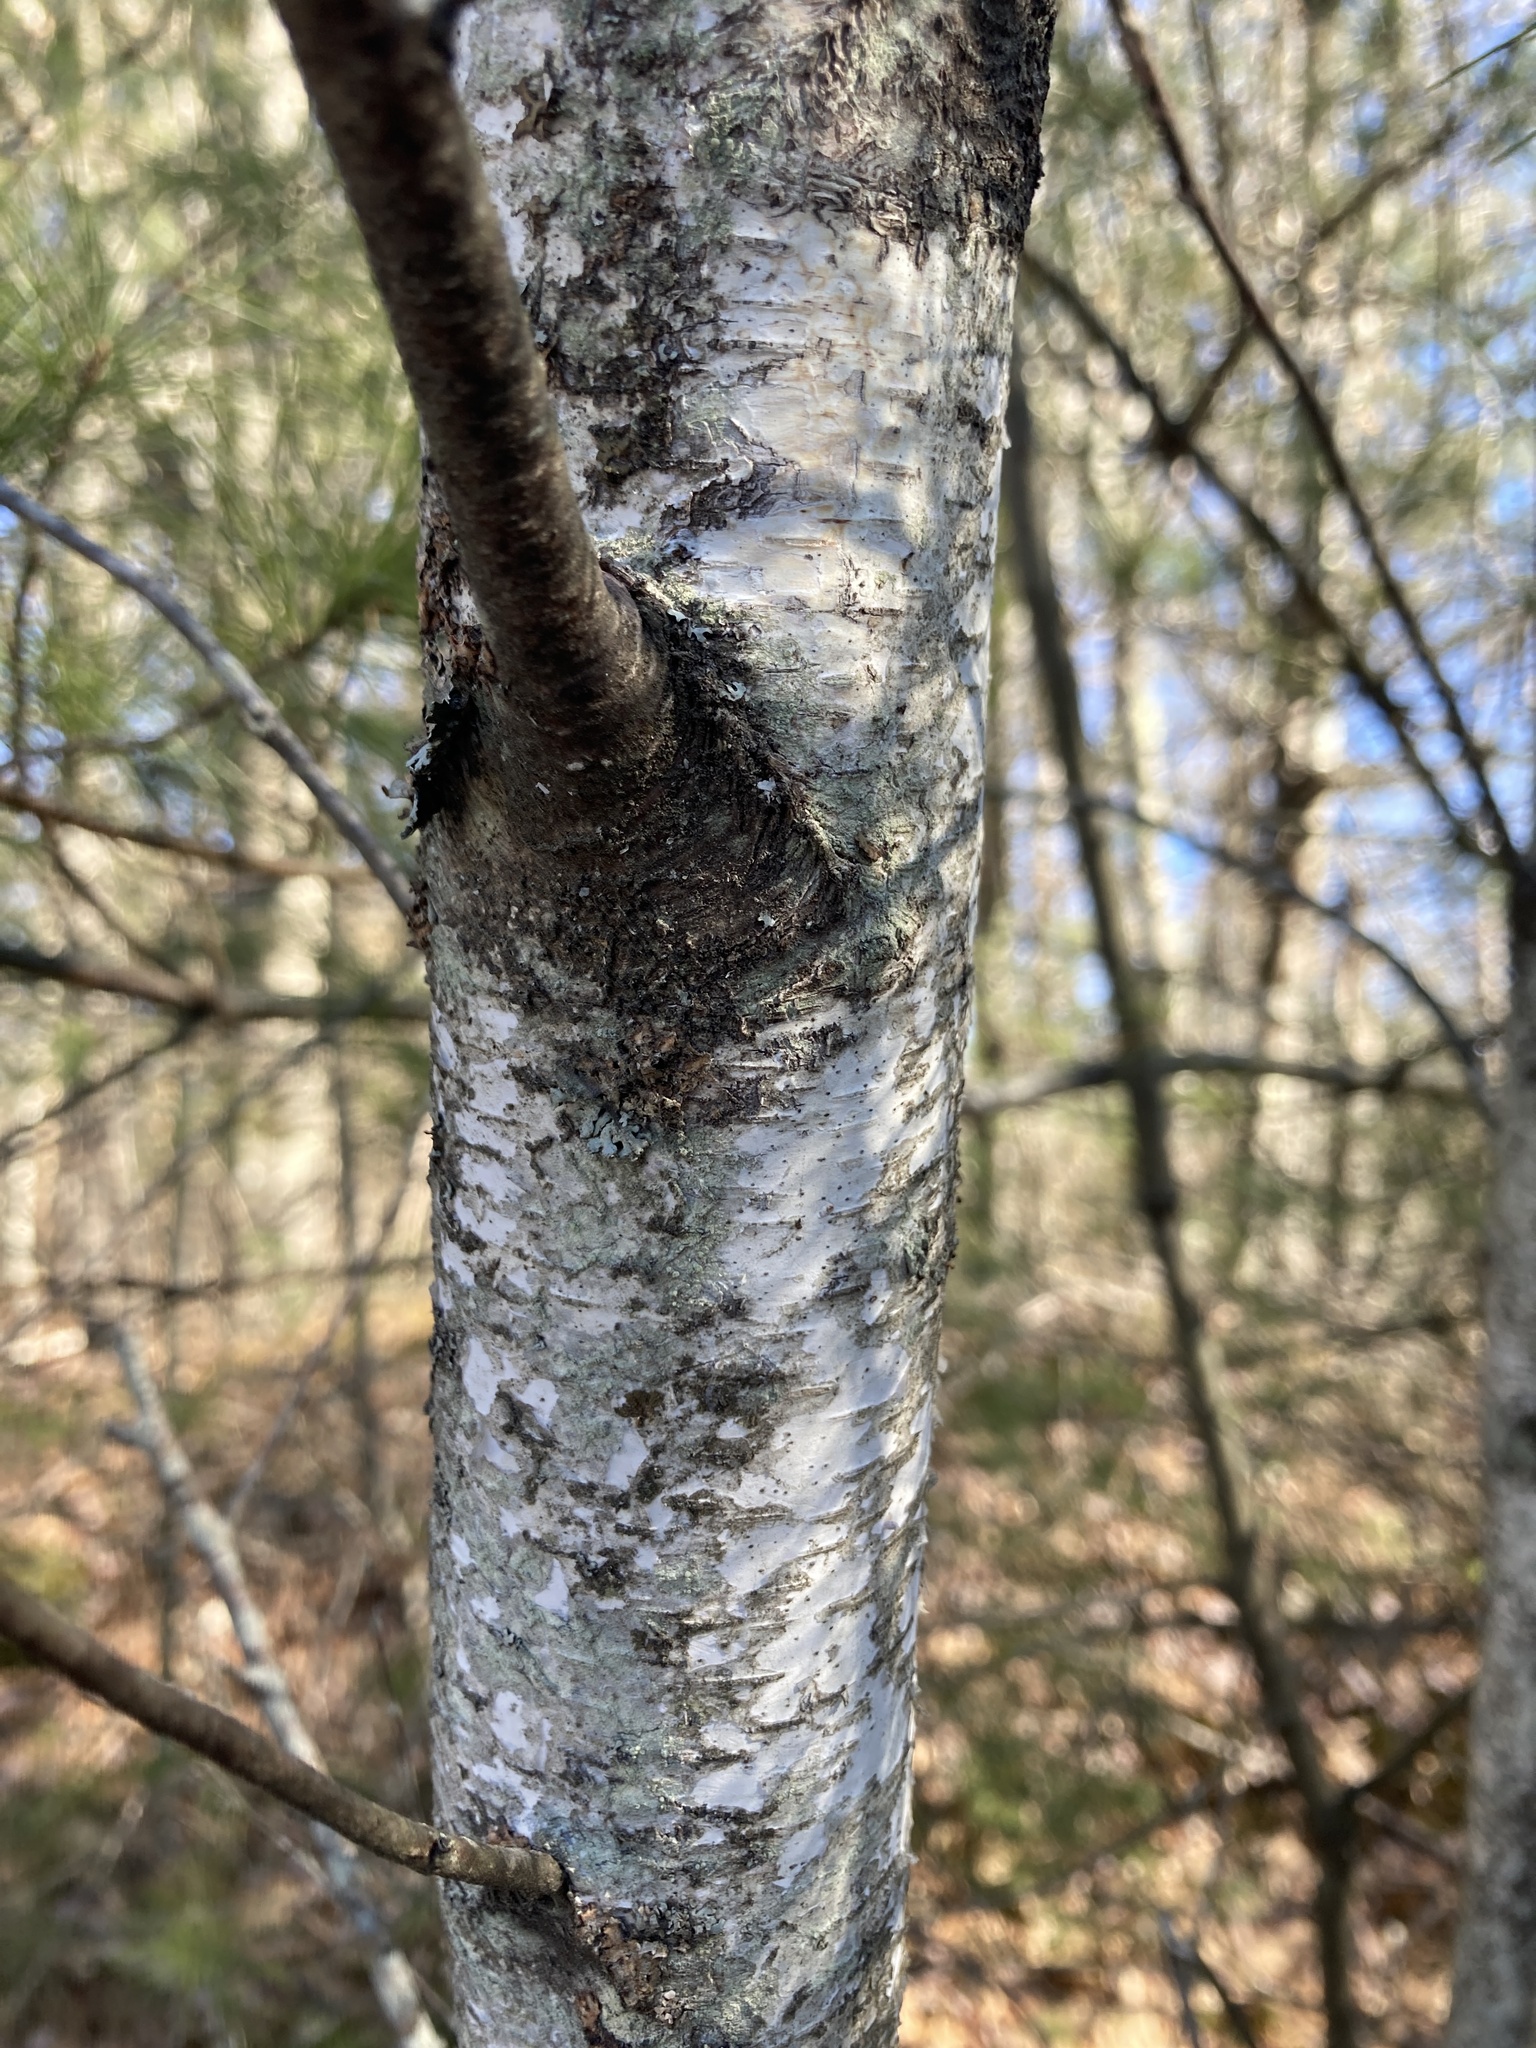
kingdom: Plantae
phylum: Tracheophyta
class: Magnoliopsida
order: Fagales
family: Betulaceae
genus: Betula
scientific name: Betula populifolia
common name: Fire birch
